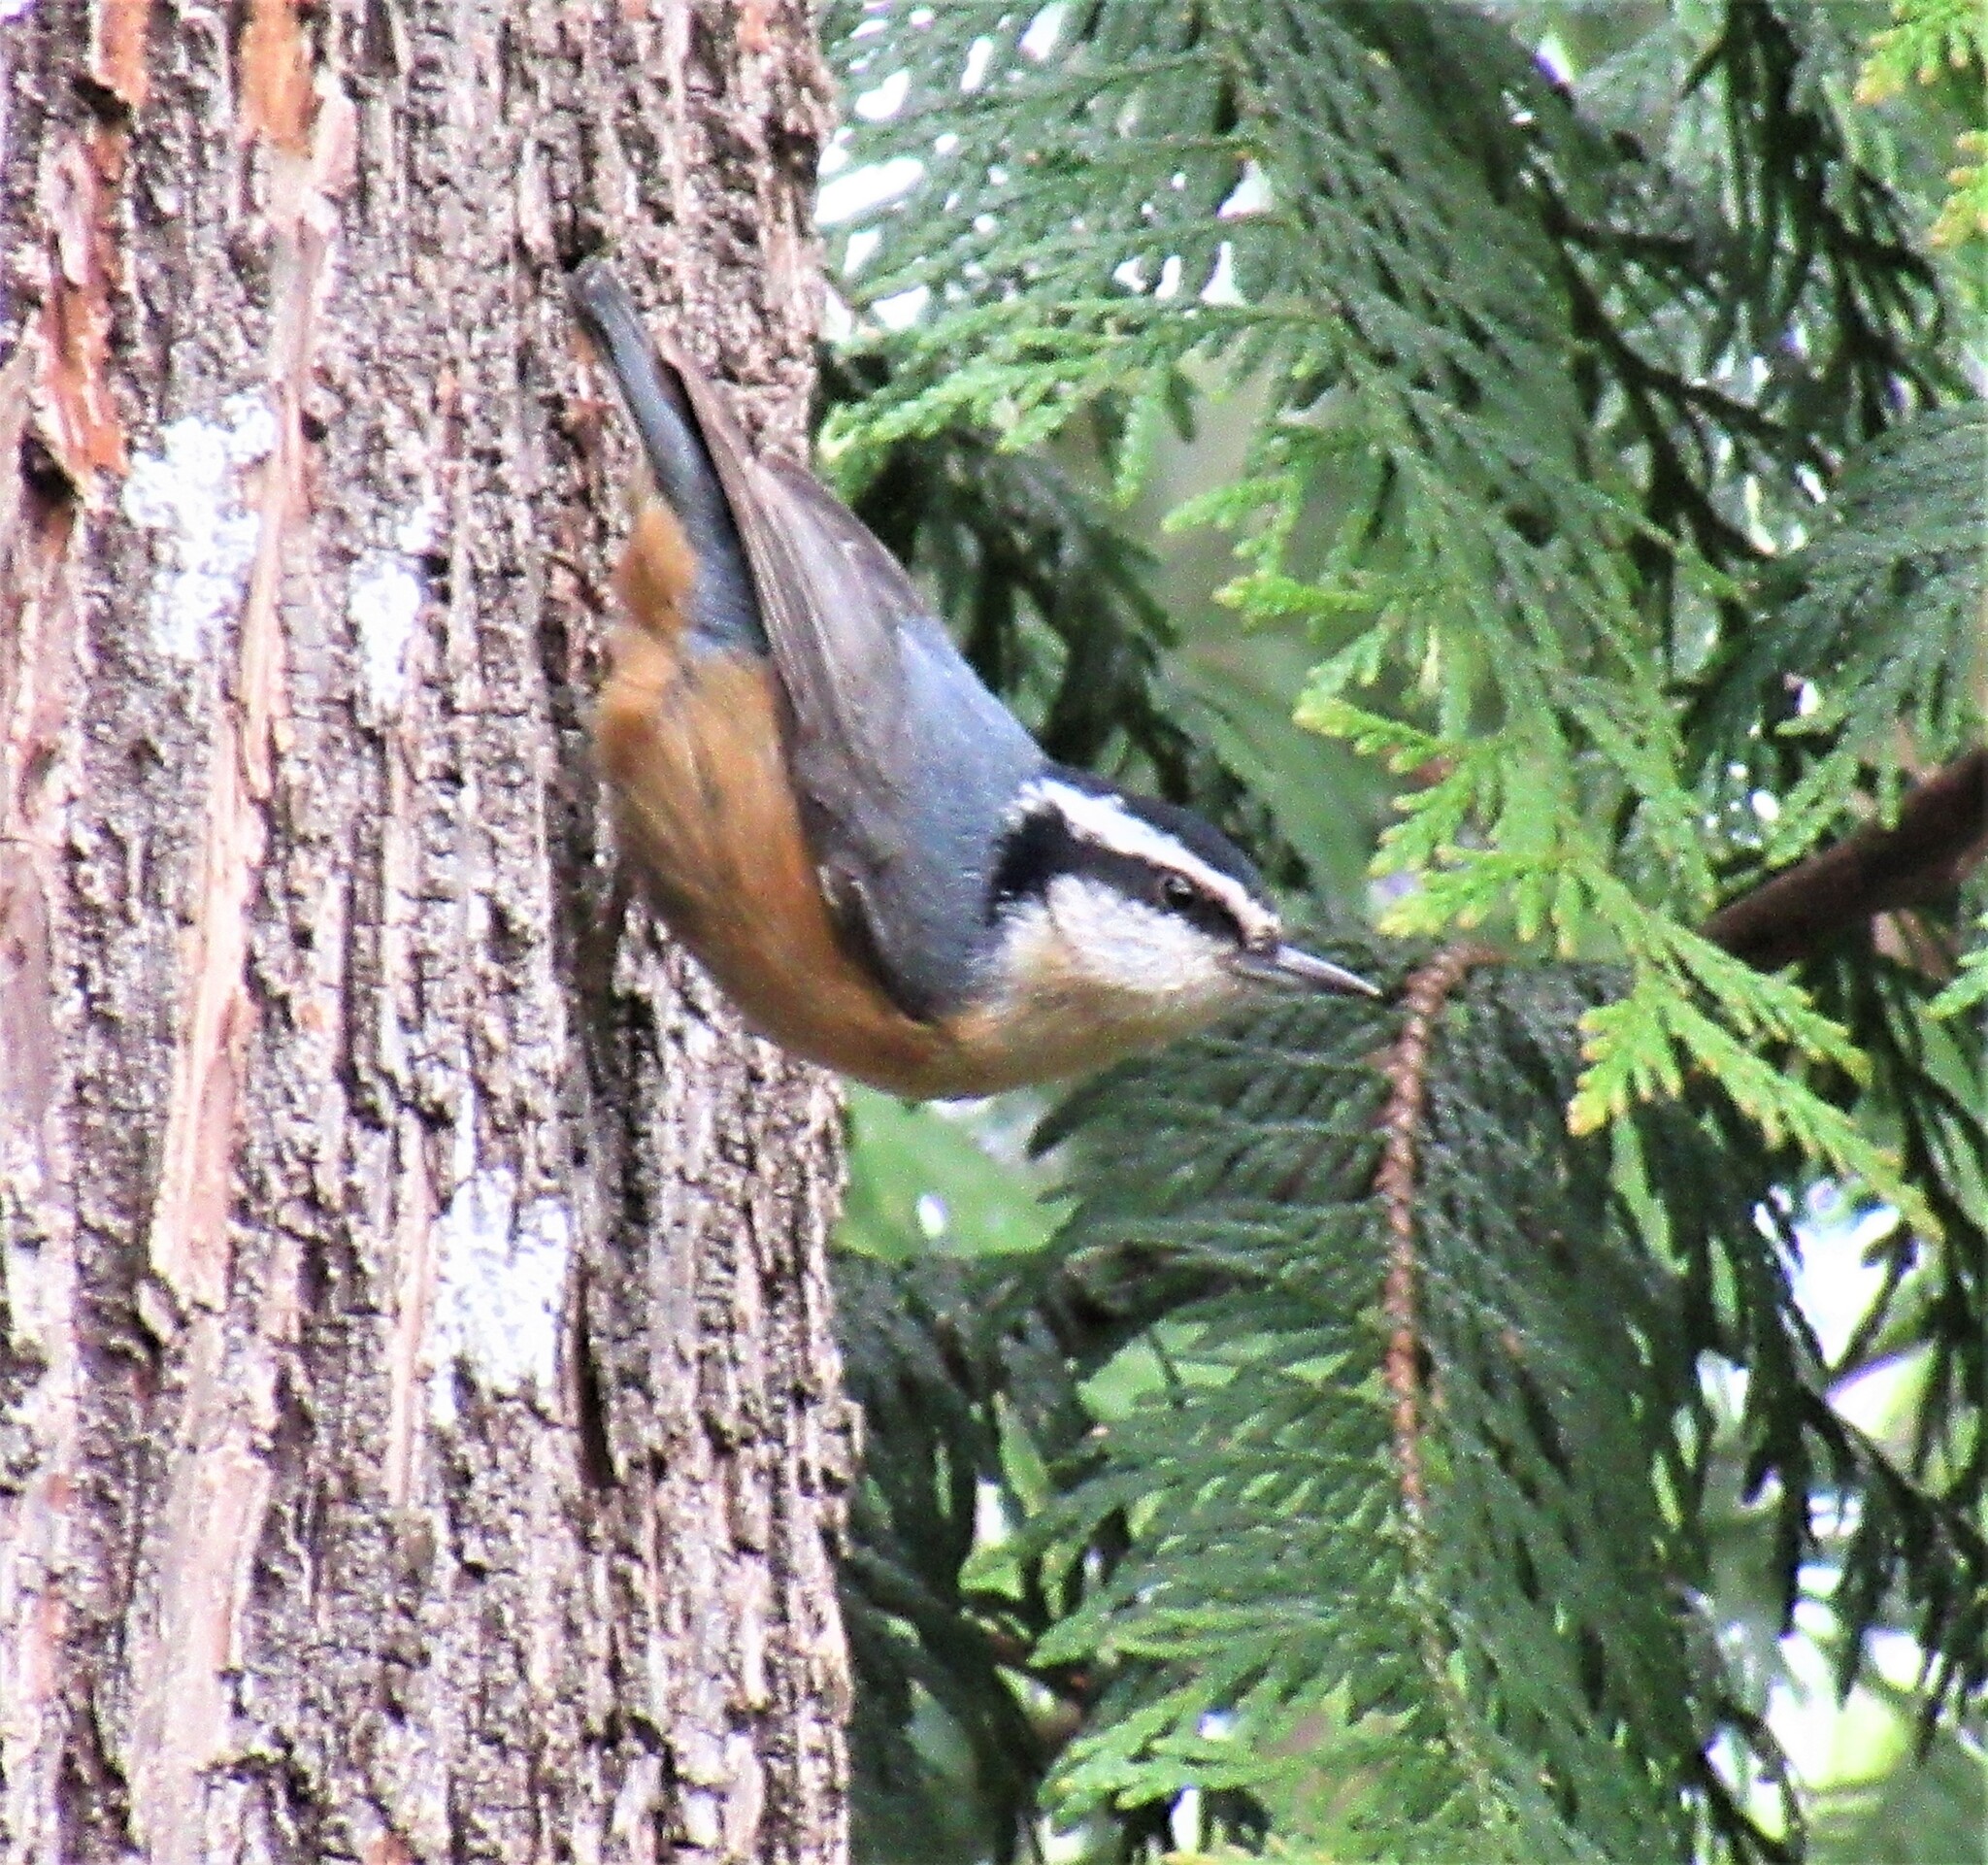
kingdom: Animalia
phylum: Chordata
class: Aves
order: Passeriformes
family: Sittidae
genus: Sitta
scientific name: Sitta canadensis
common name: Red-breasted nuthatch
